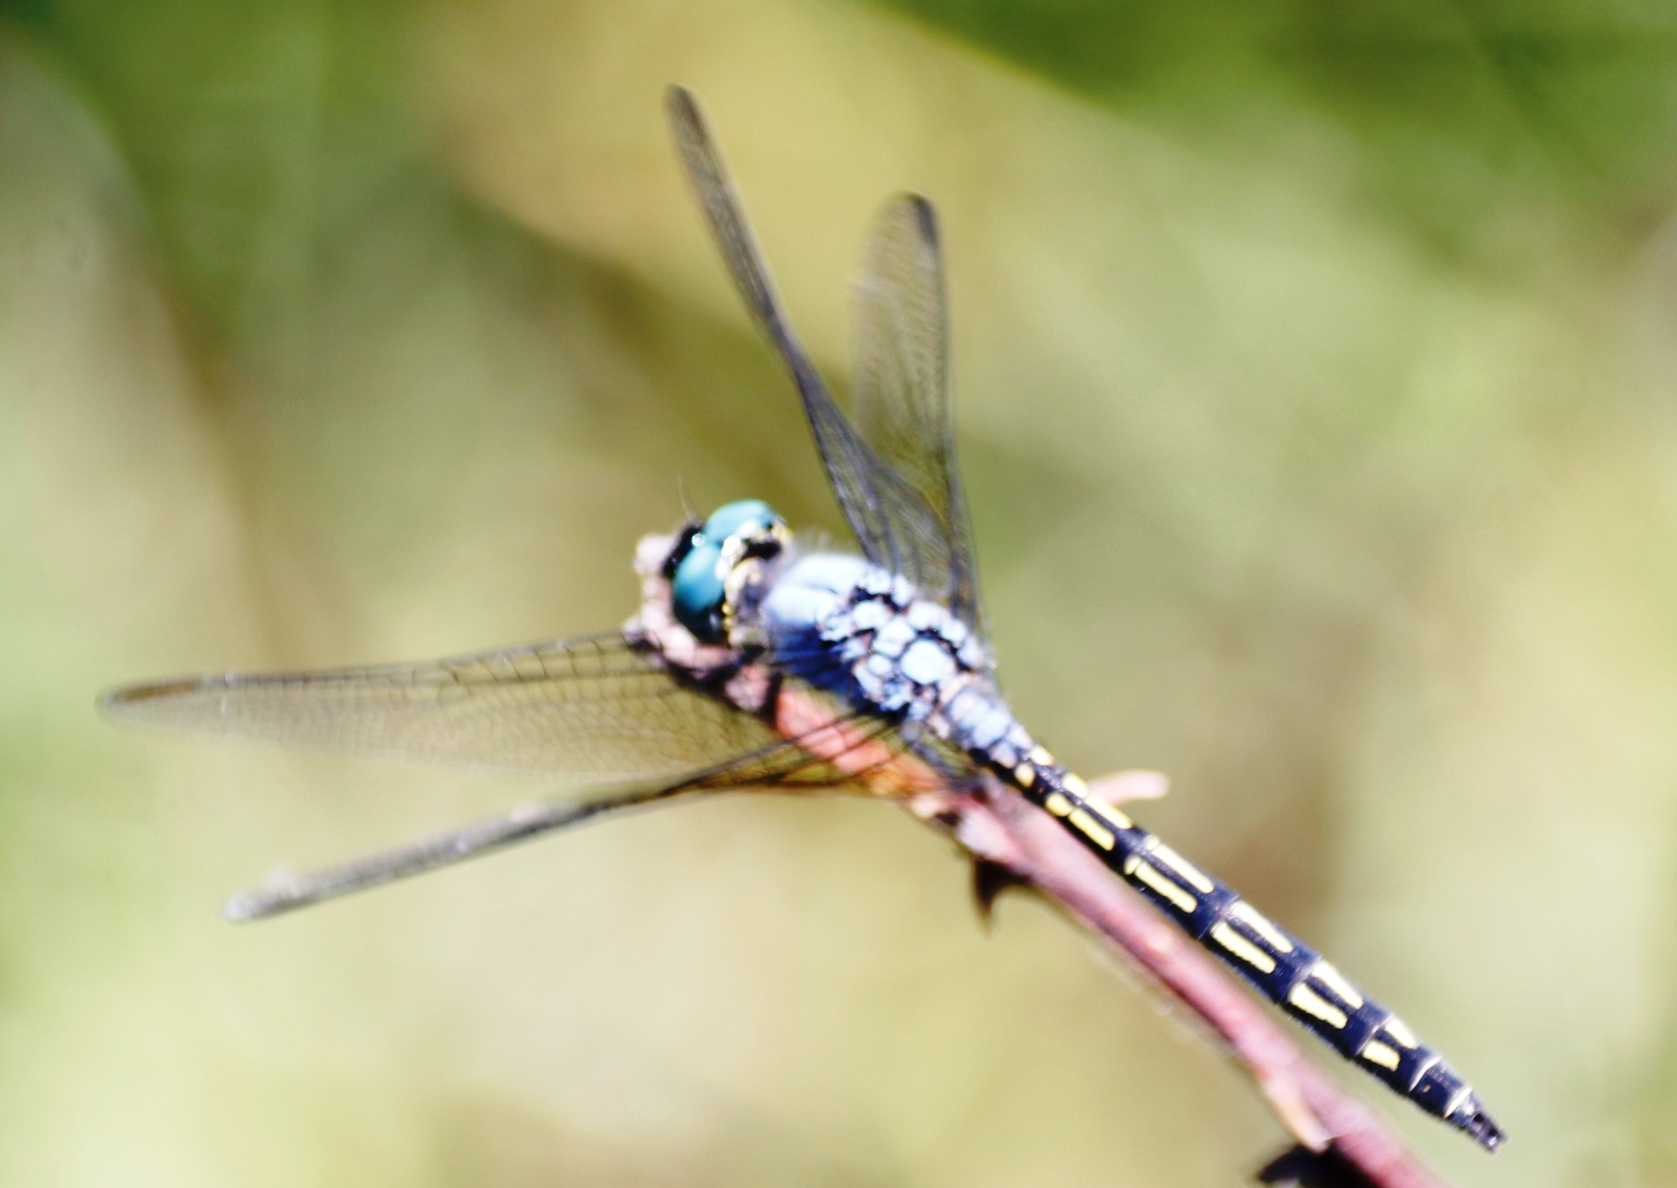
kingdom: Animalia
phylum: Arthropoda
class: Insecta
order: Odonata
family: Libellulidae
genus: Trithemis
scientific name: Trithemis stictica
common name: Jaunty dropwing
